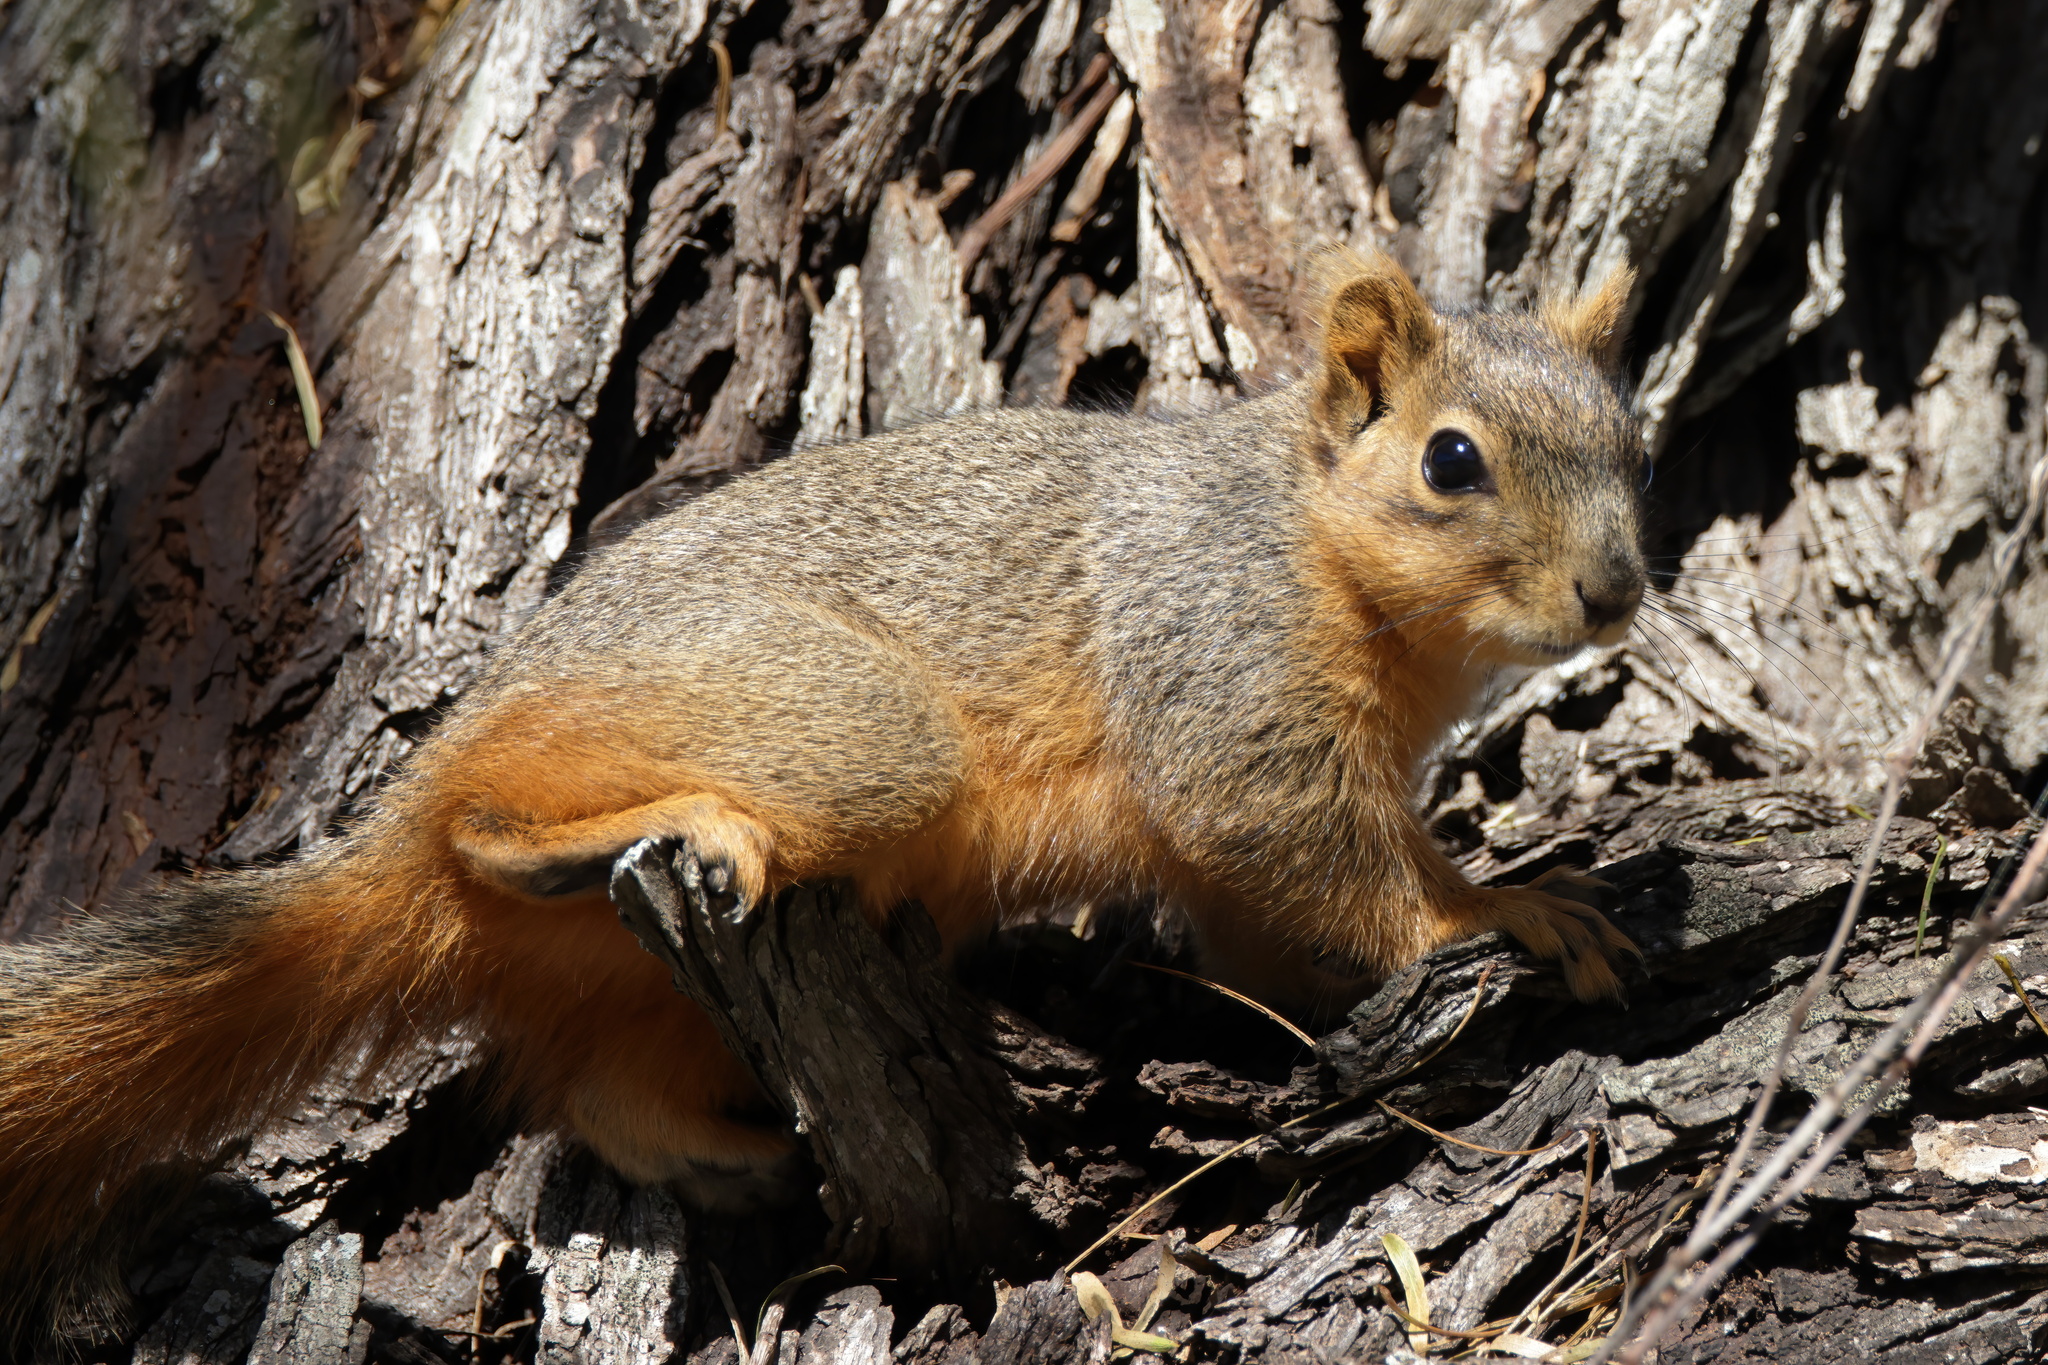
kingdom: Animalia
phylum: Chordata
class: Mammalia
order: Rodentia
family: Sciuridae
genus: Sciurus
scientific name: Sciurus niger
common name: Fox squirrel
